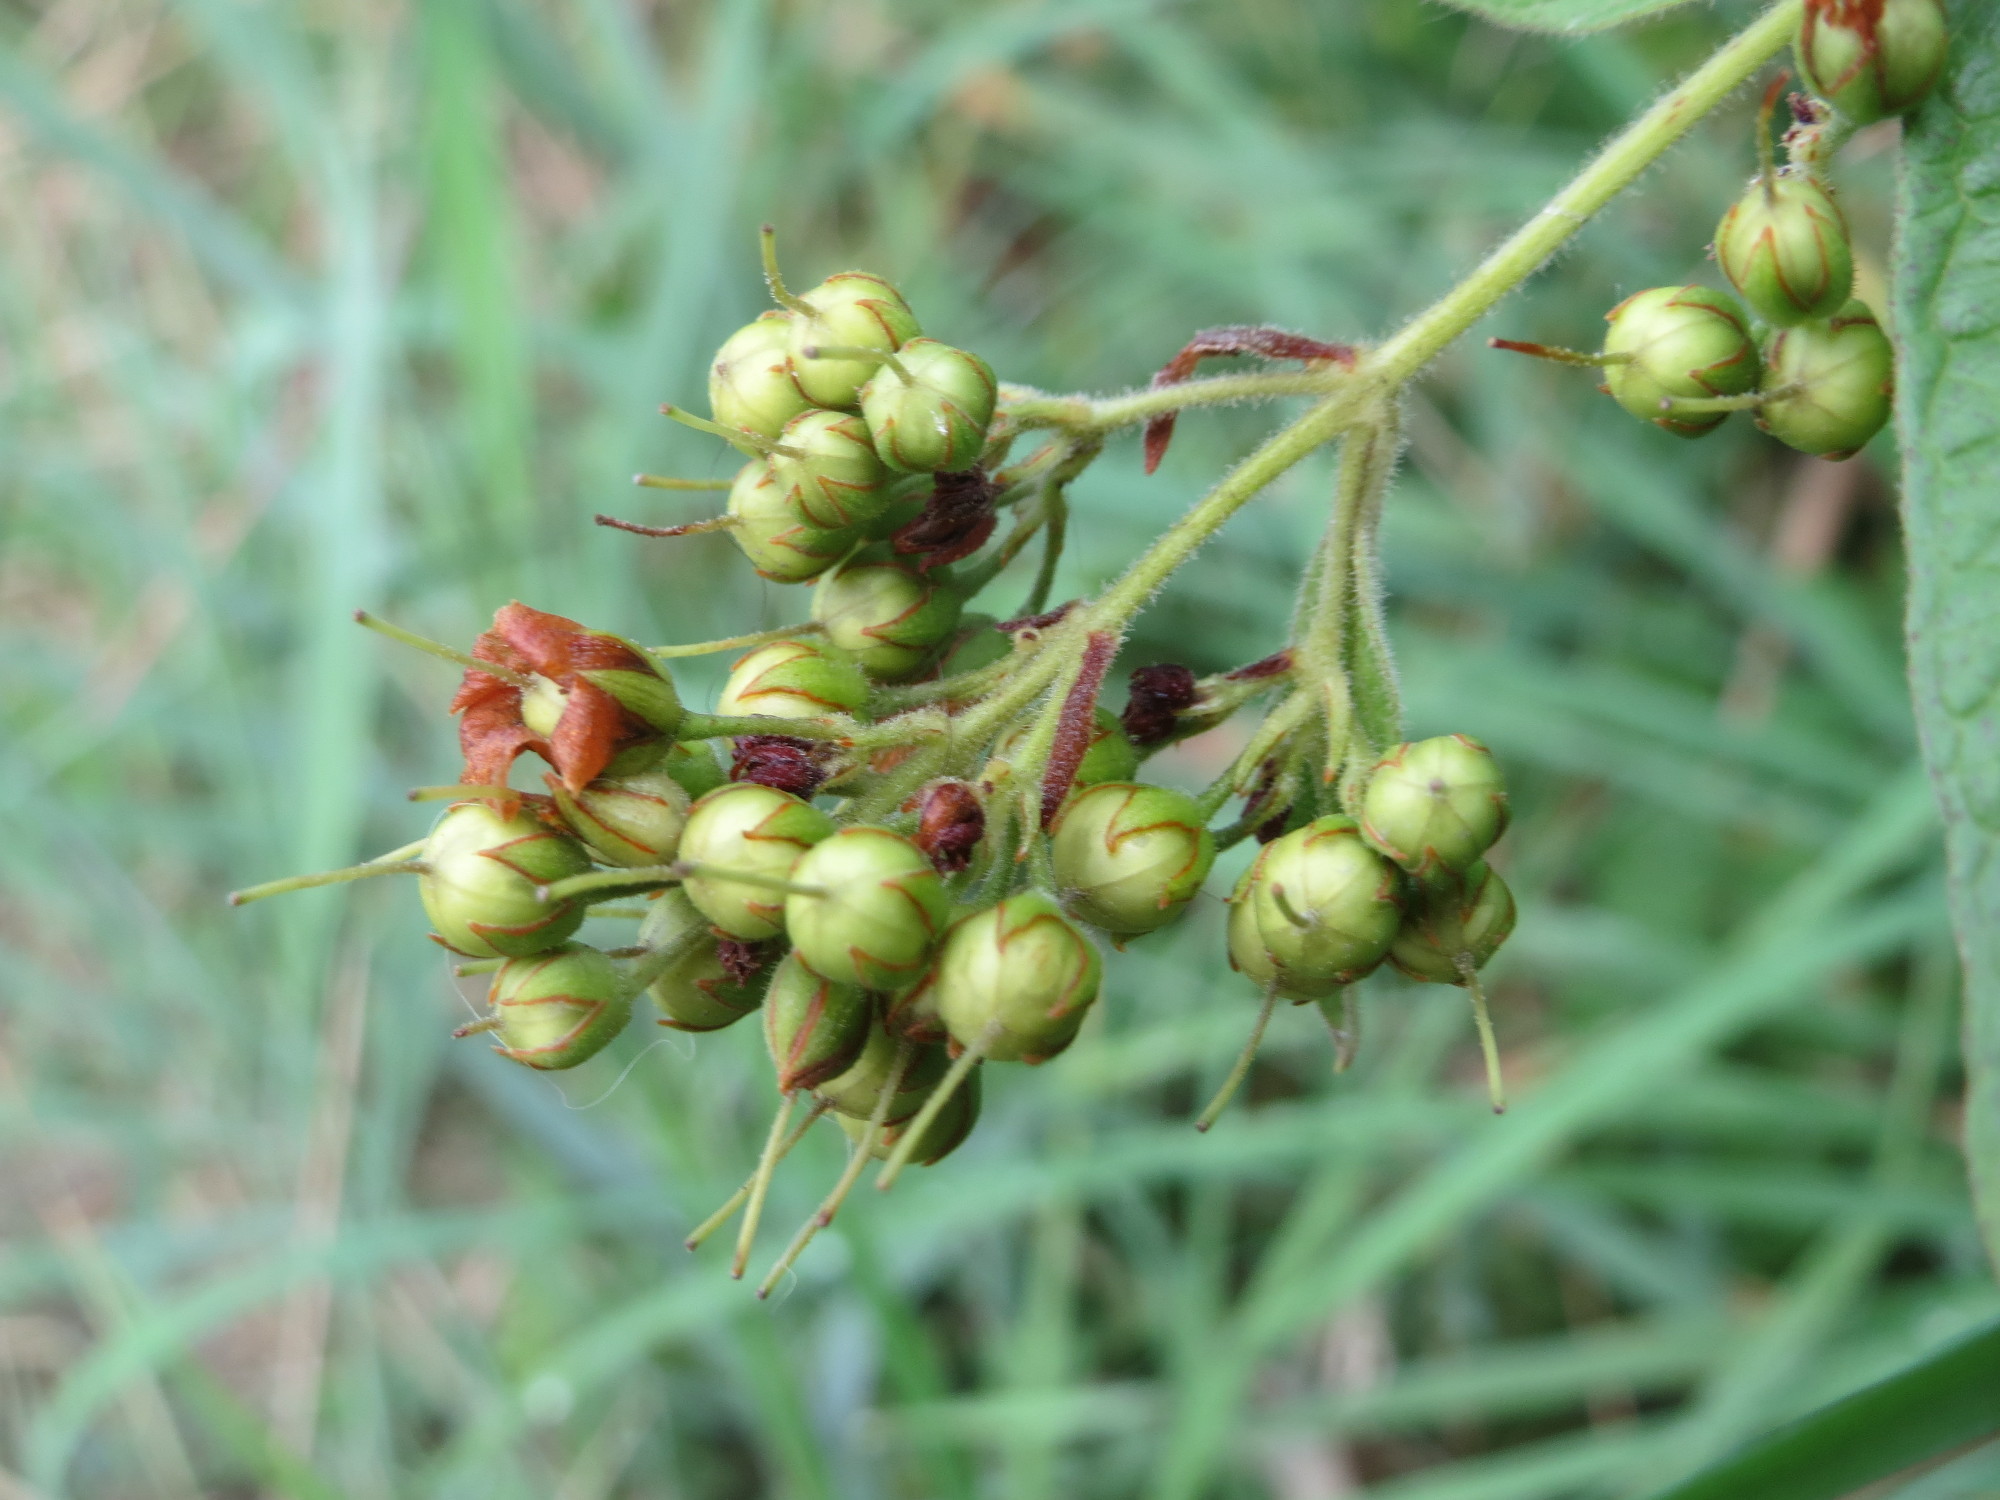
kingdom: Plantae
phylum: Tracheophyta
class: Magnoliopsida
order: Ericales
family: Primulaceae
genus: Lysimachia
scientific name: Lysimachia vulgaris
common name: Yellow loosestrife
